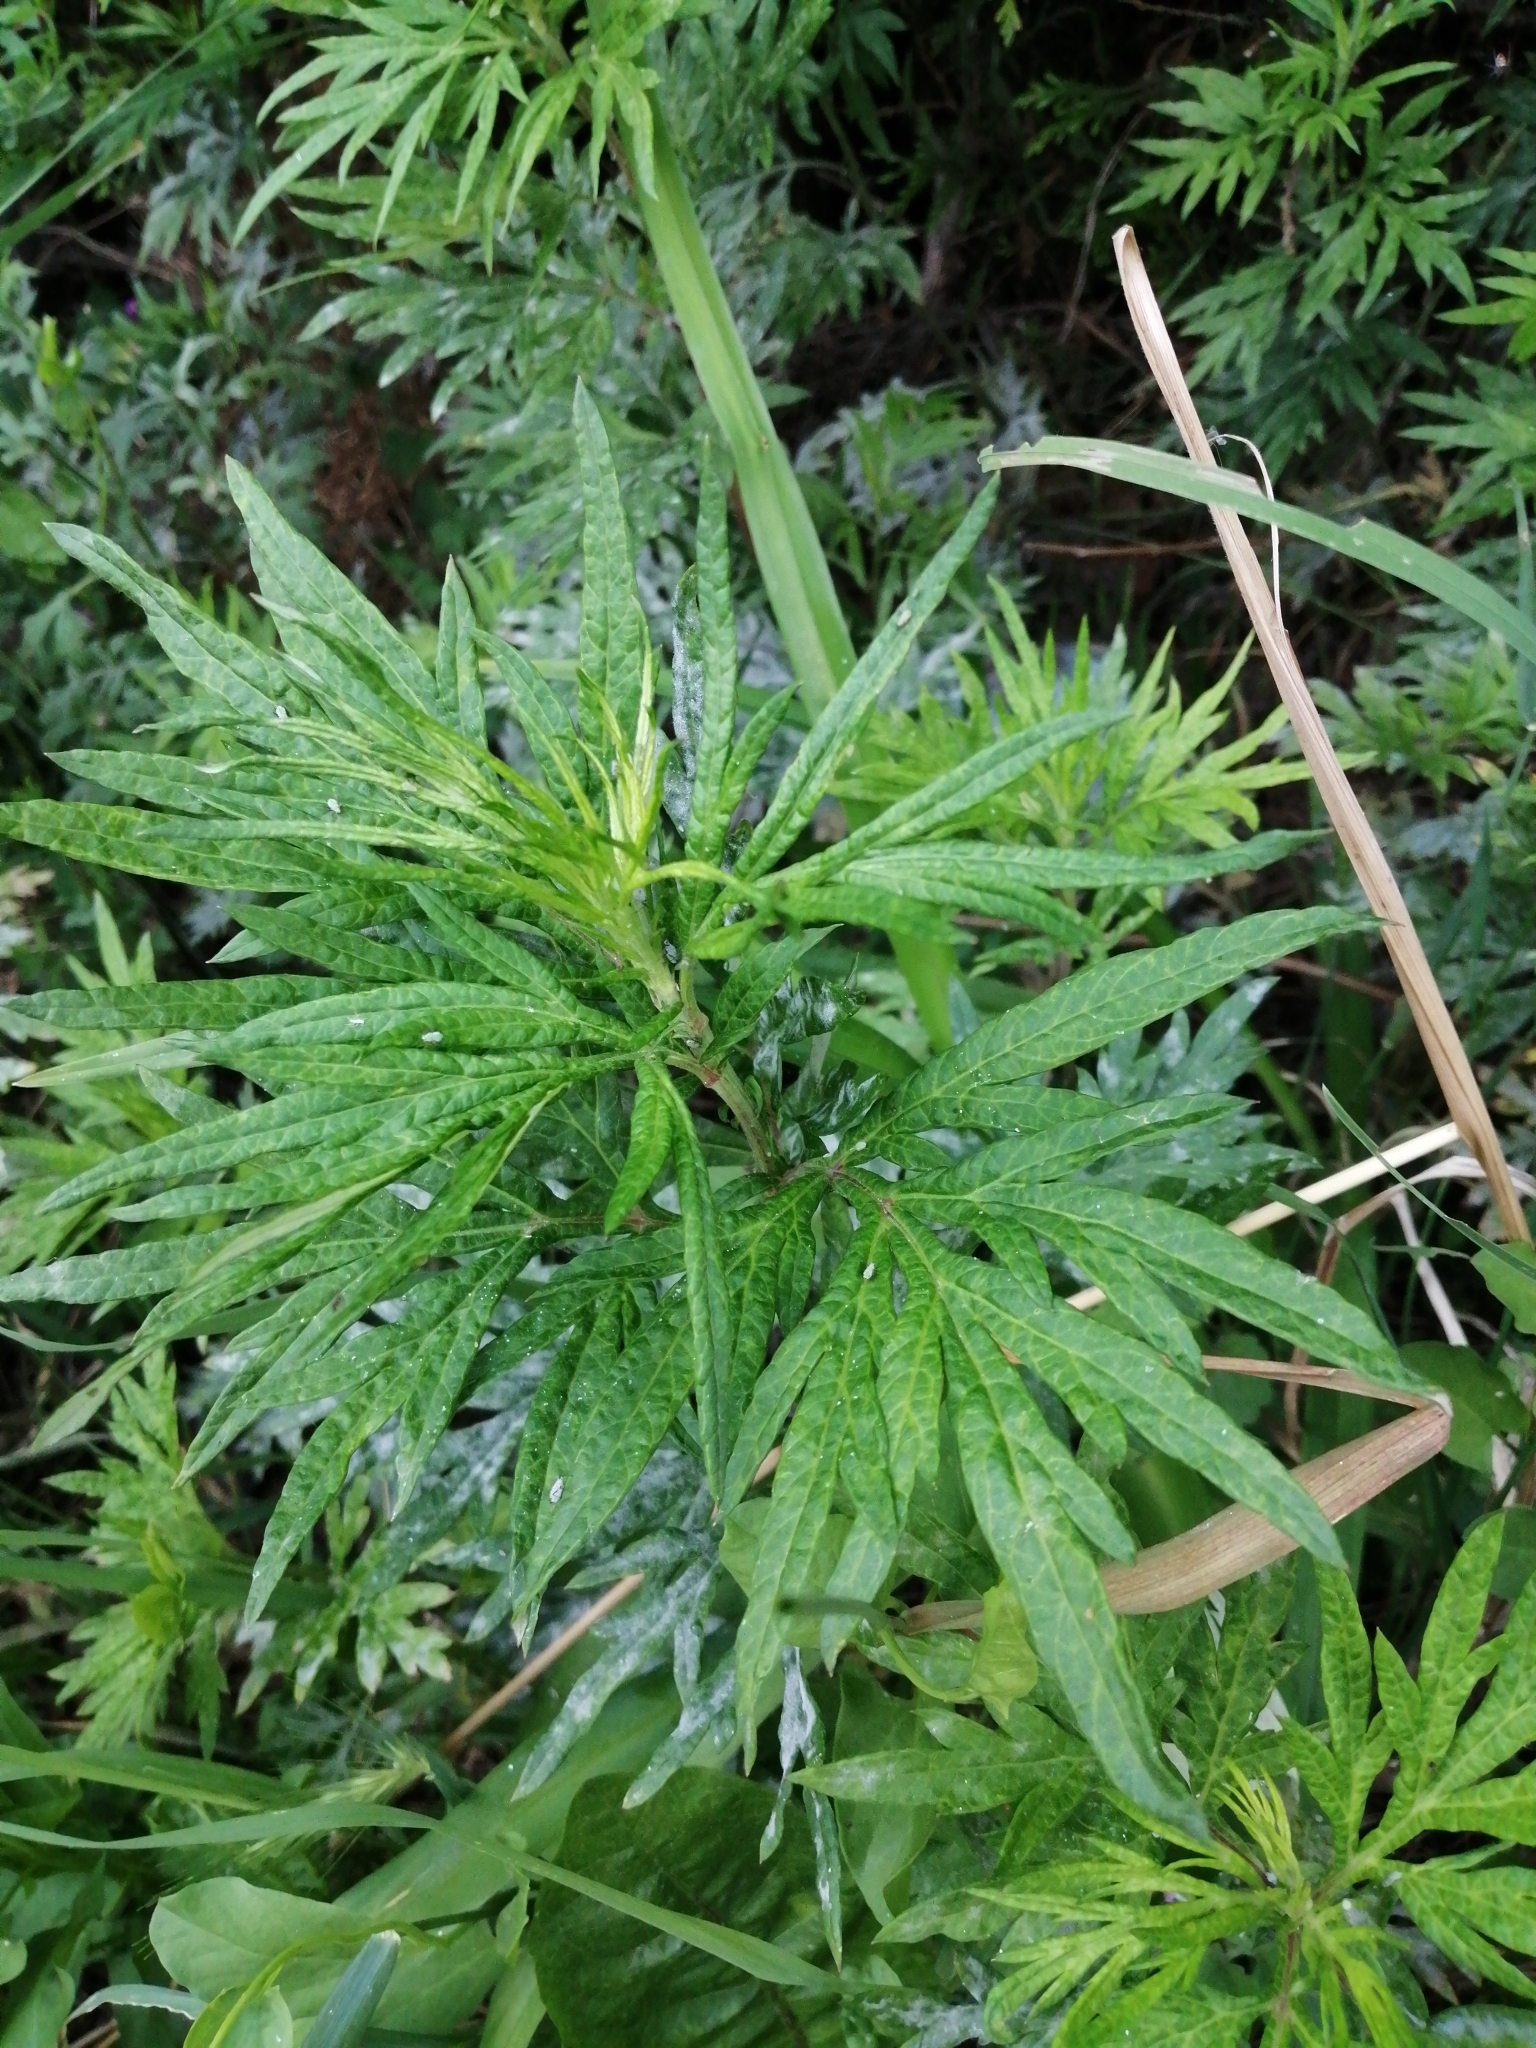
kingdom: Plantae
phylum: Tracheophyta
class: Magnoliopsida
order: Asterales
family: Asteraceae
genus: Artemisia
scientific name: Artemisia verlotiorum
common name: Chinese mugwort
